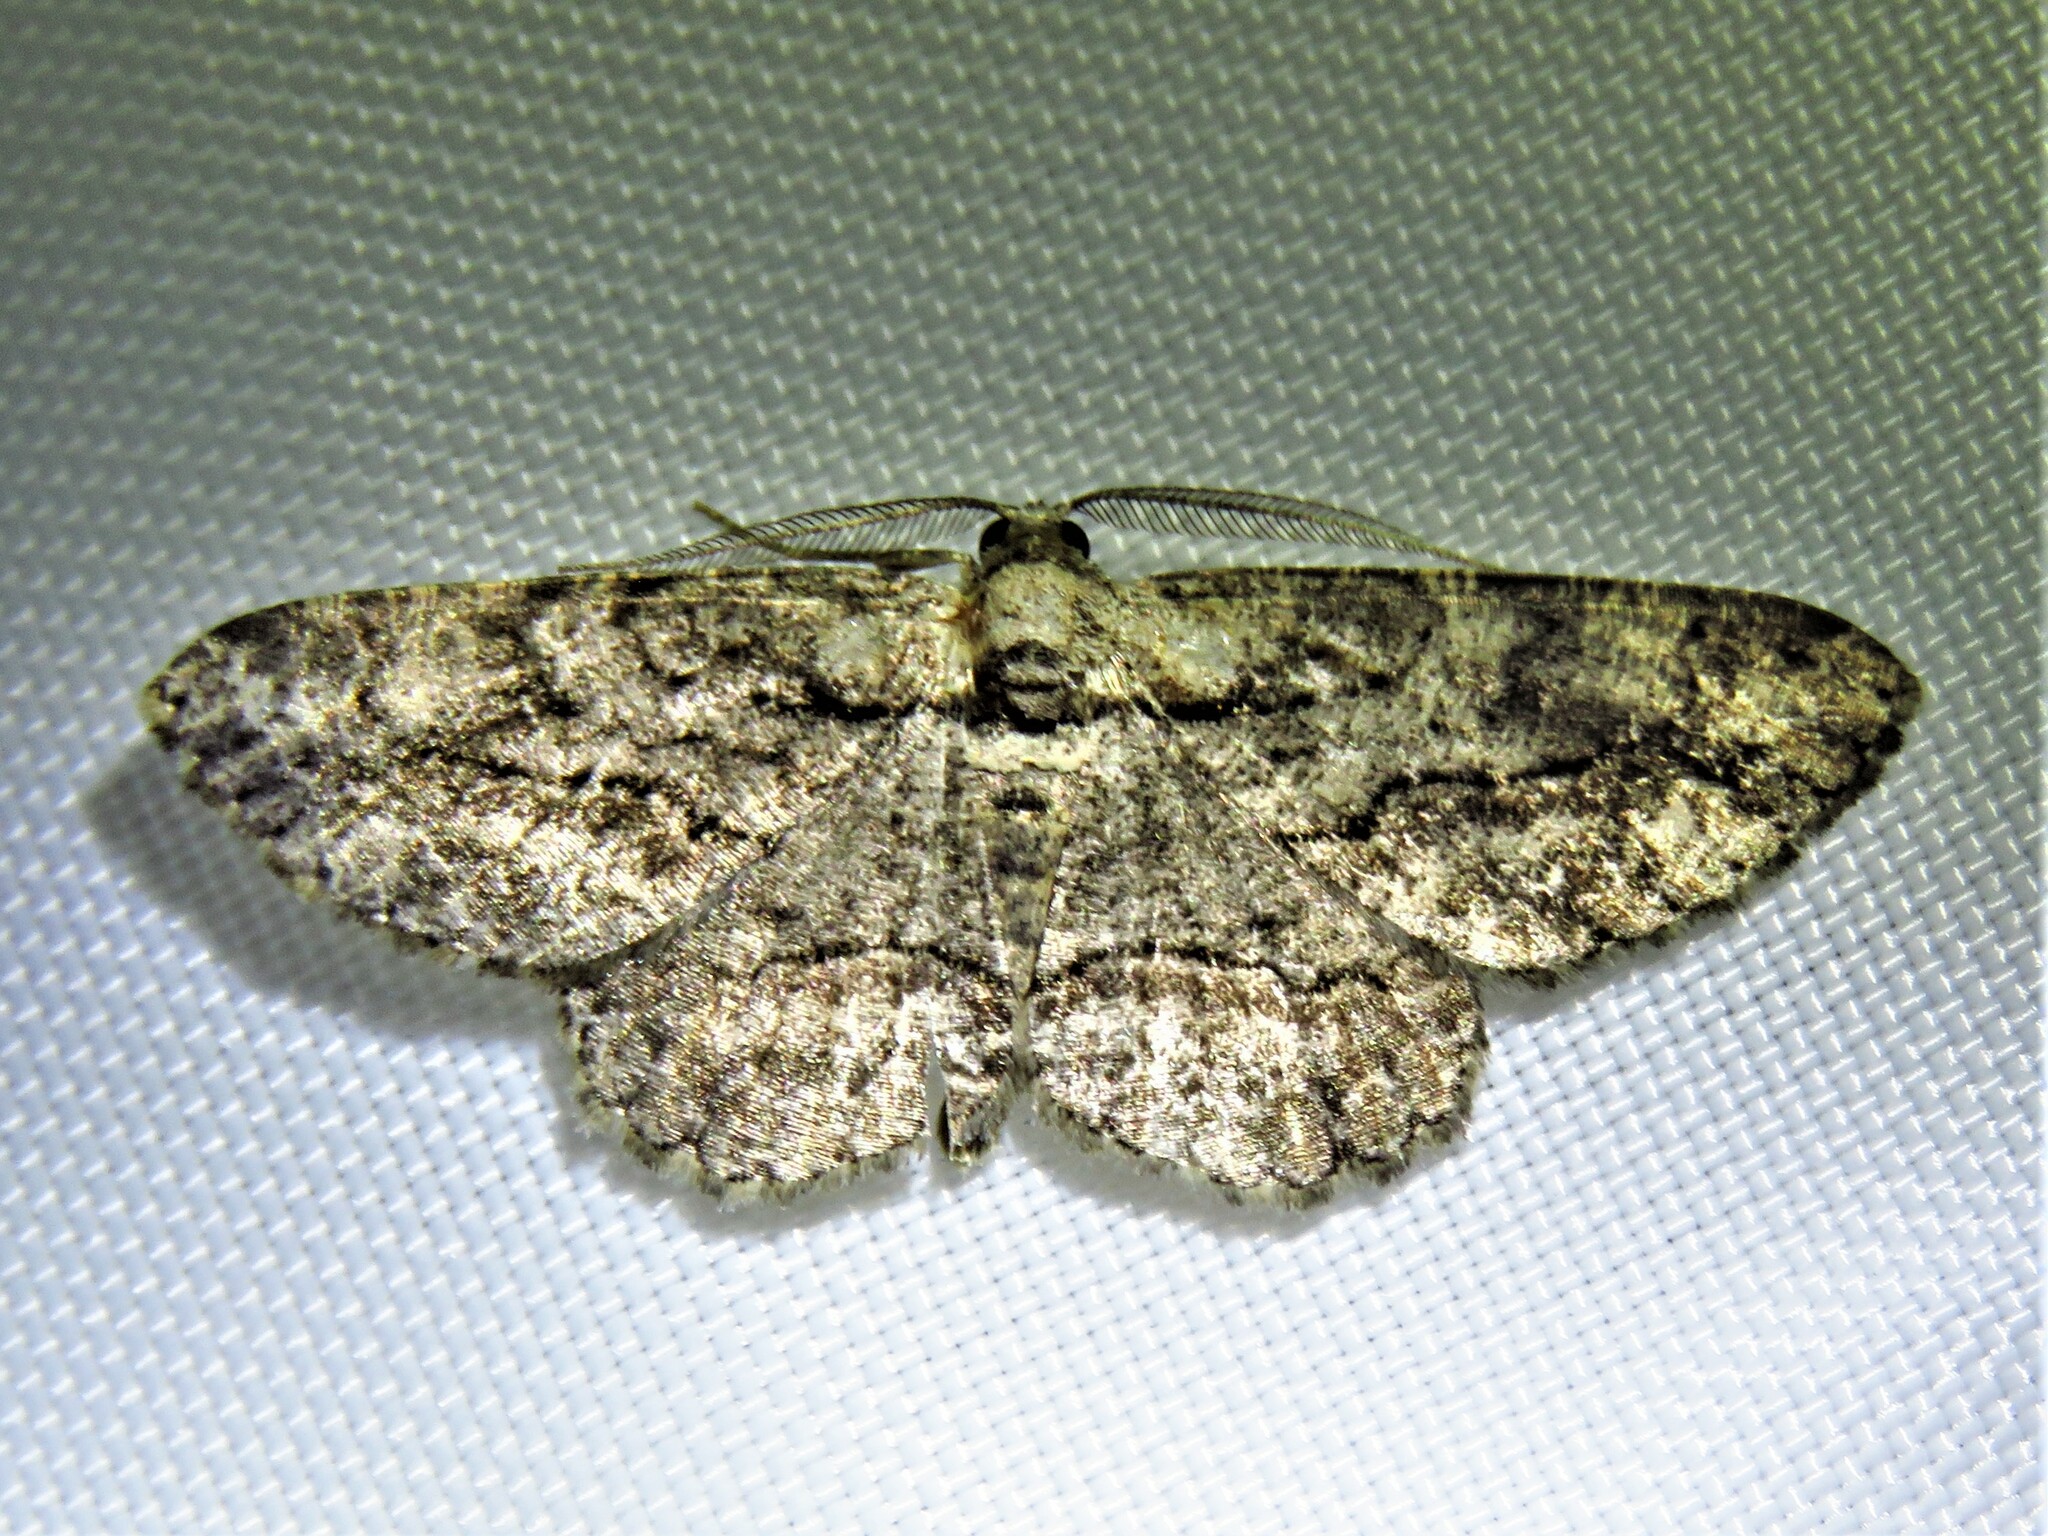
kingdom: Animalia
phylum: Arthropoda
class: Insecta
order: Lepidoptera
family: Geometridae
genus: Anavitrinella
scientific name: Anavitrinella pampinaria
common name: Common gray
